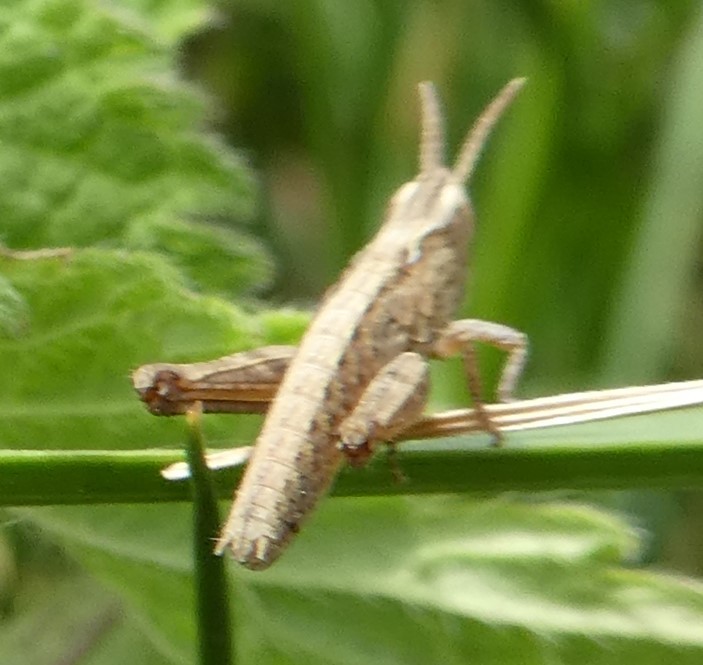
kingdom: Animalia
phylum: Arthropoda
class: Insecta
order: Orthoptera
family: Acrididae
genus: Chorthippus
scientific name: Chorthippus brunneus
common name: Field grasshopper
